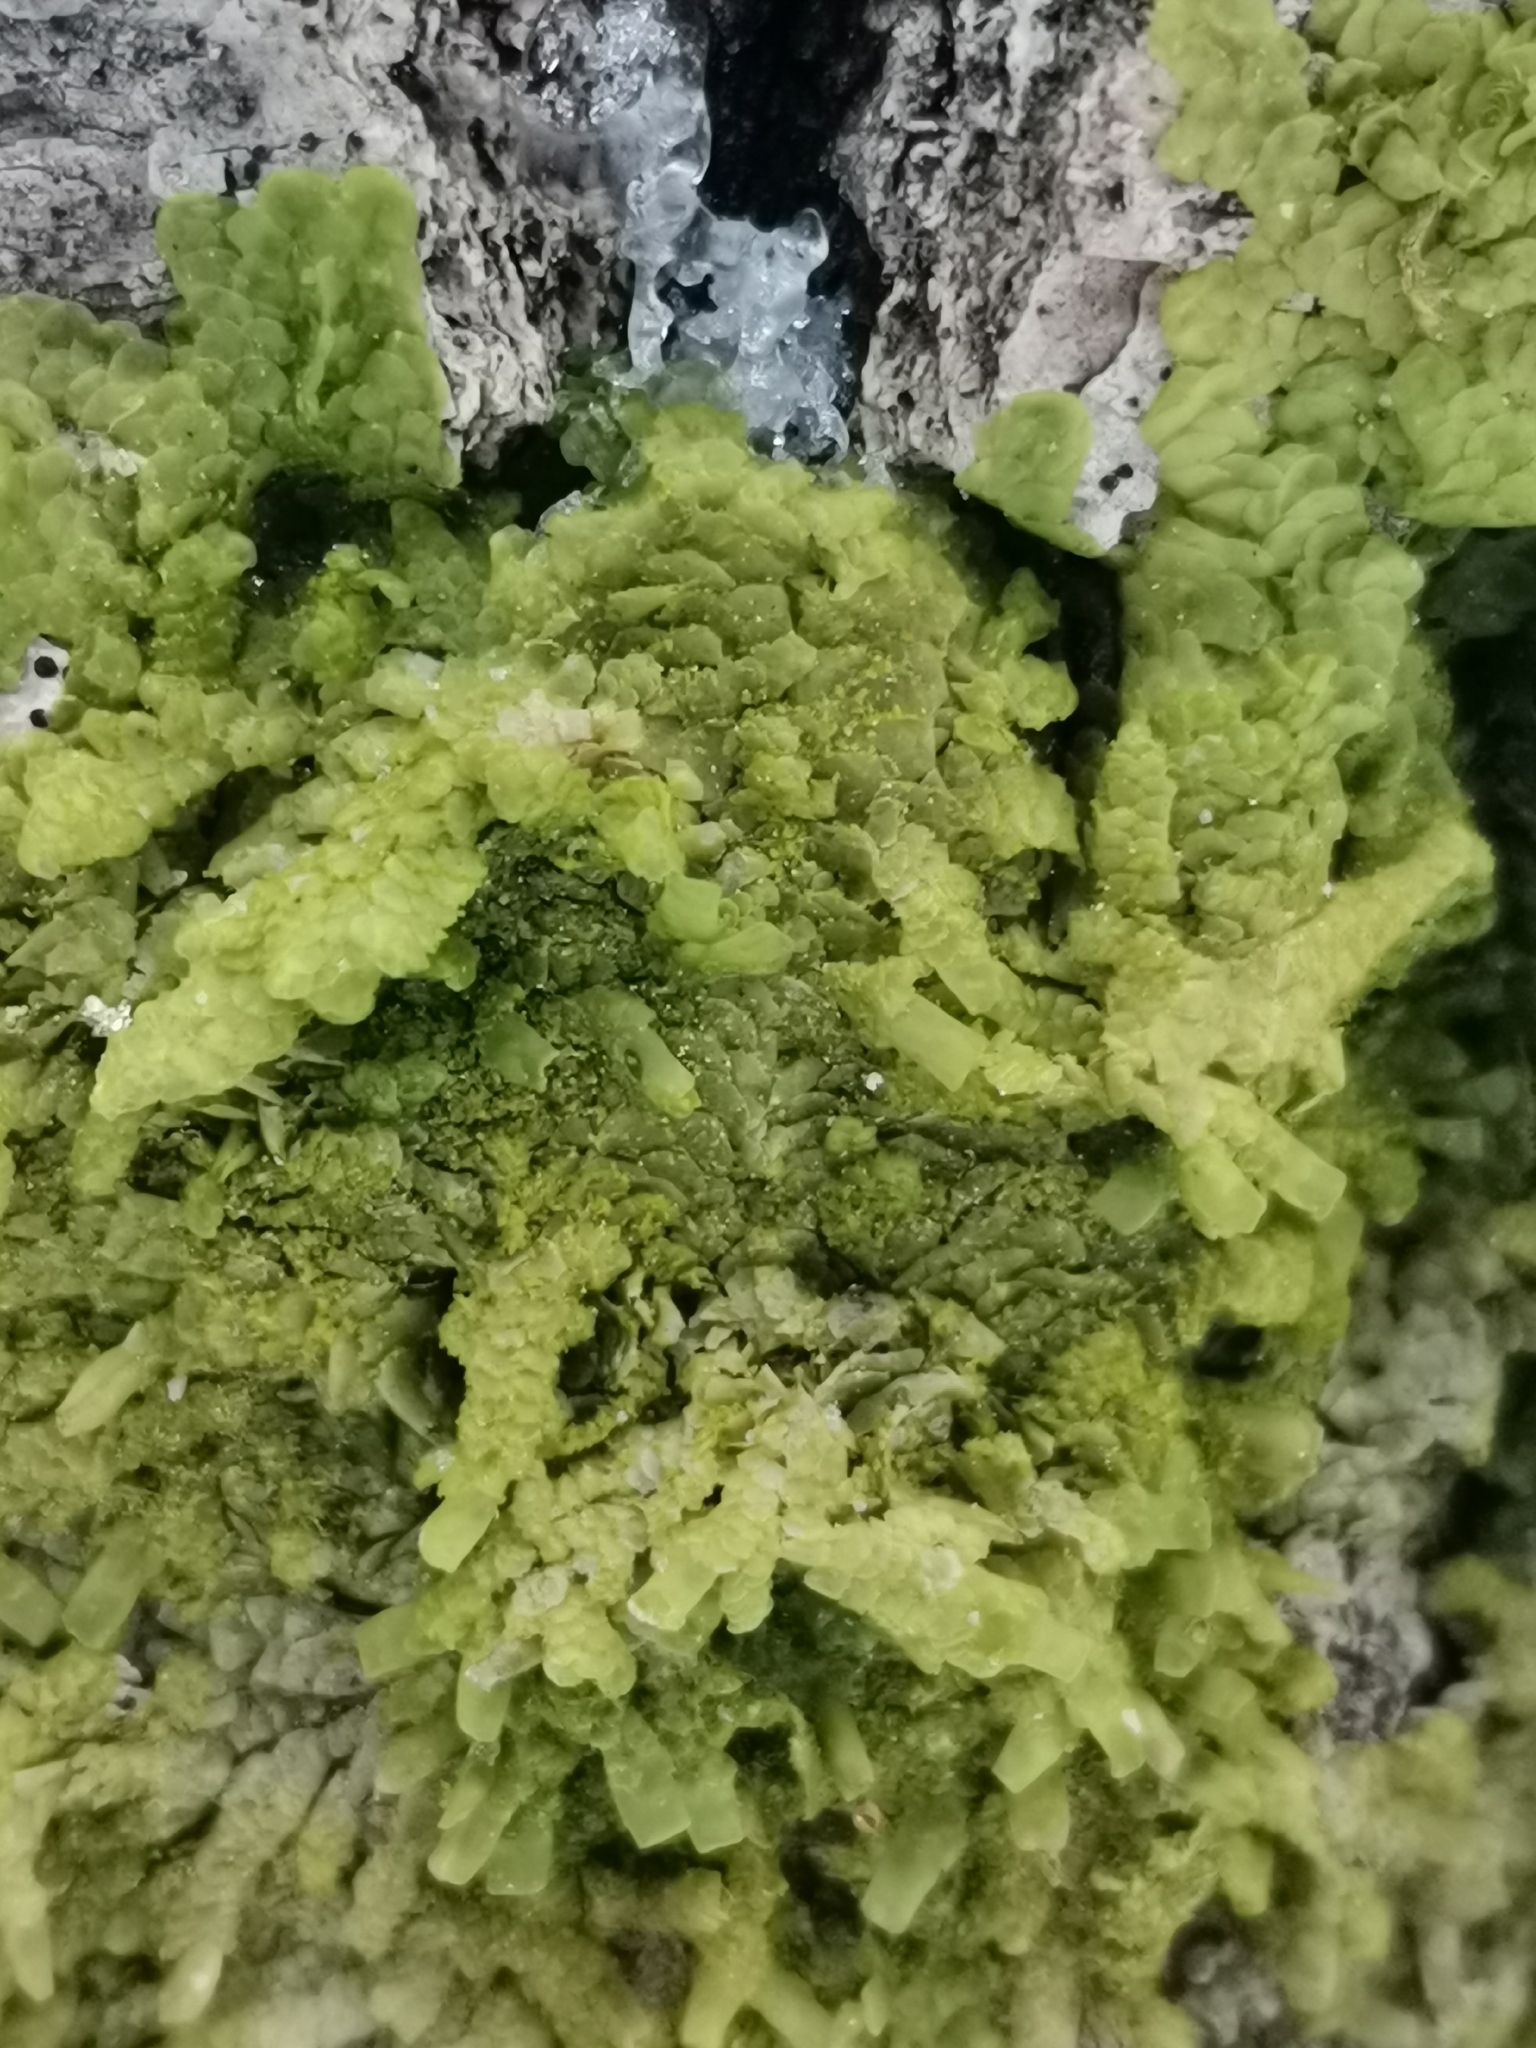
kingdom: Plantae
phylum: Marchantiophyta
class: Jungermanniopsida
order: Porellales
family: Radulaceae
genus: Radula
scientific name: Radula lindenbergiana
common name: Lindenberg's scalewort
